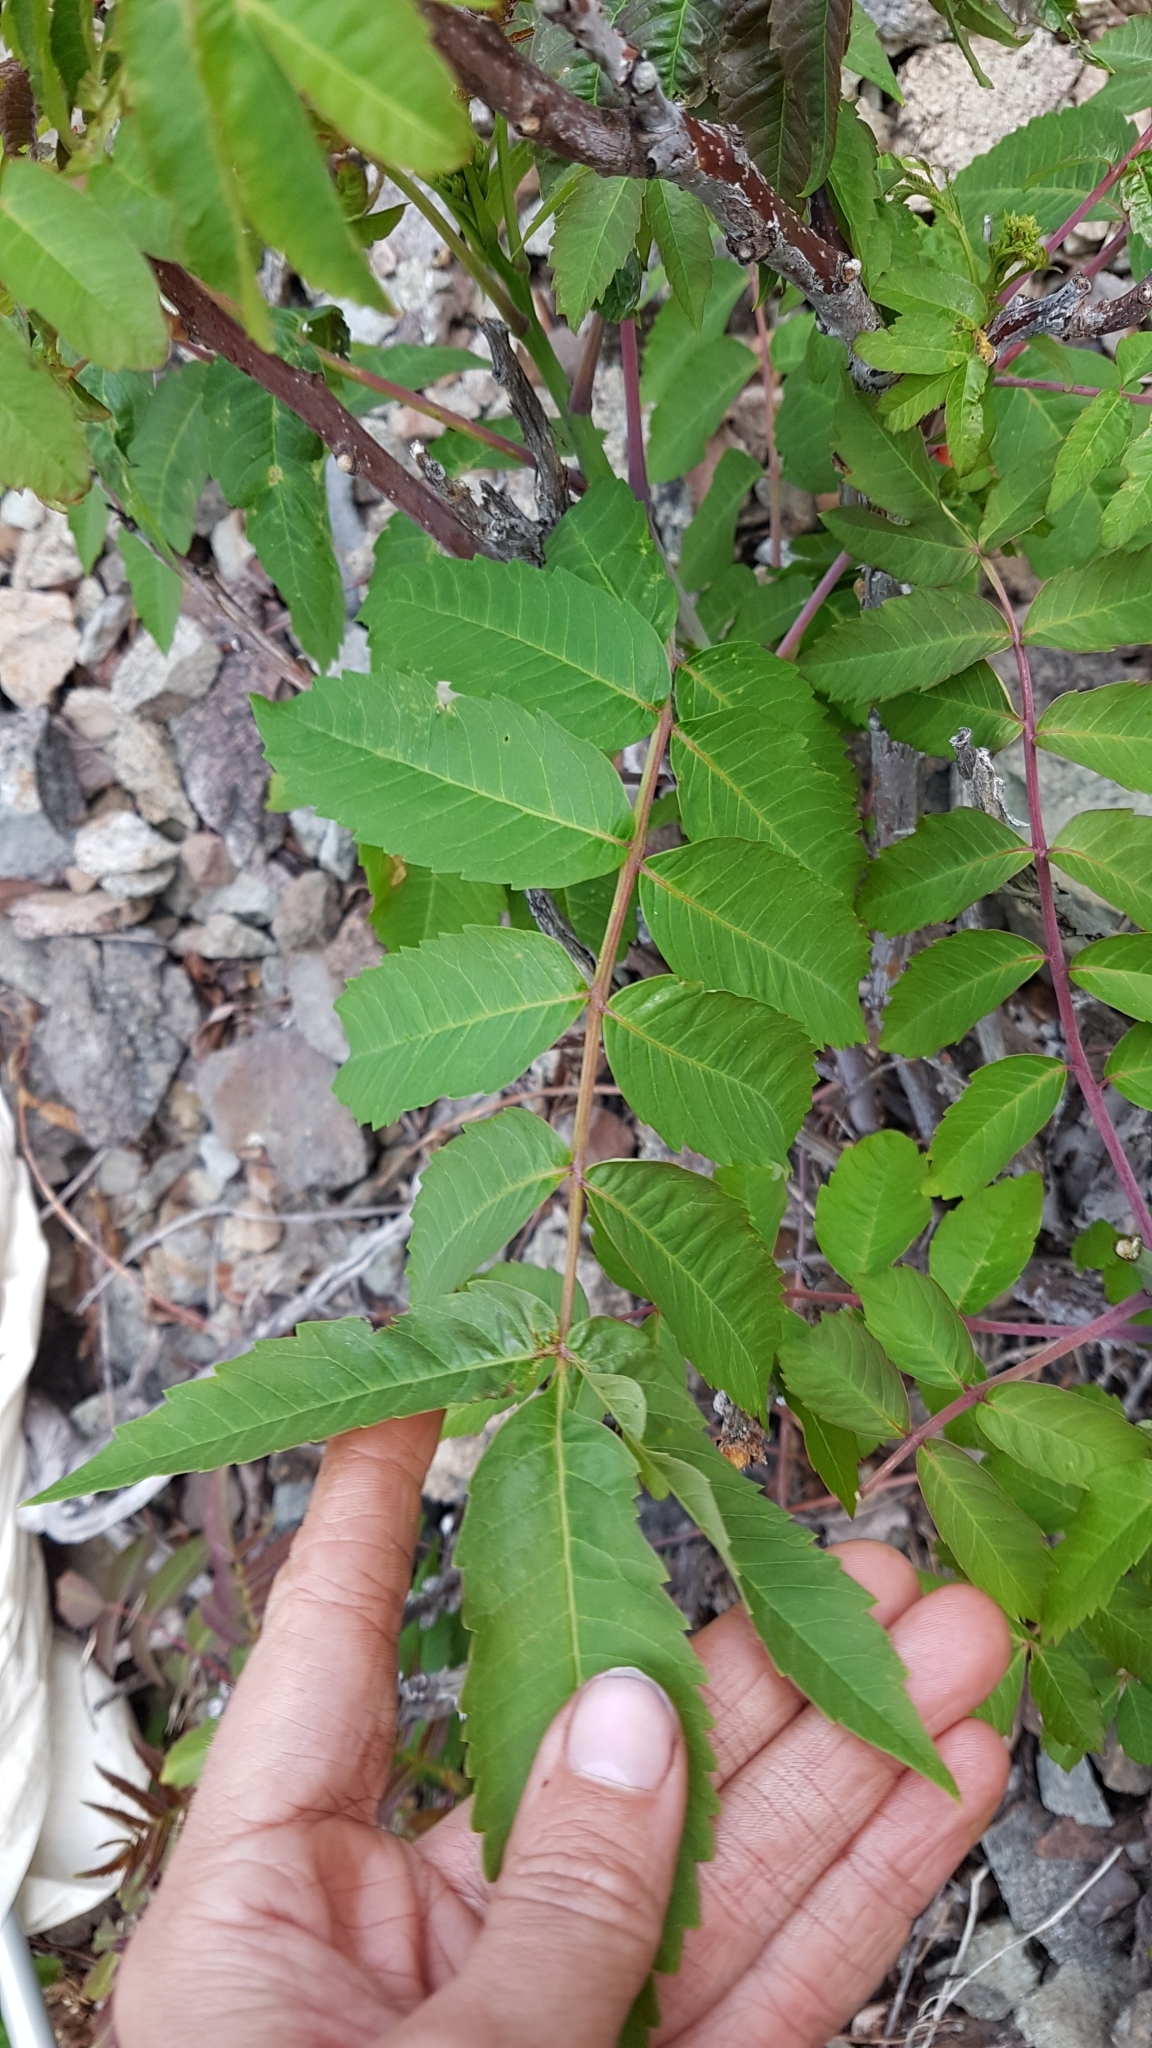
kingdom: Plantae
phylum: Tracheophyta
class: Magnoliopsida
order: Sapindales
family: Anacardiaceae
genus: Rhus
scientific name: Rhus glabra
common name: Scarlet sumac
